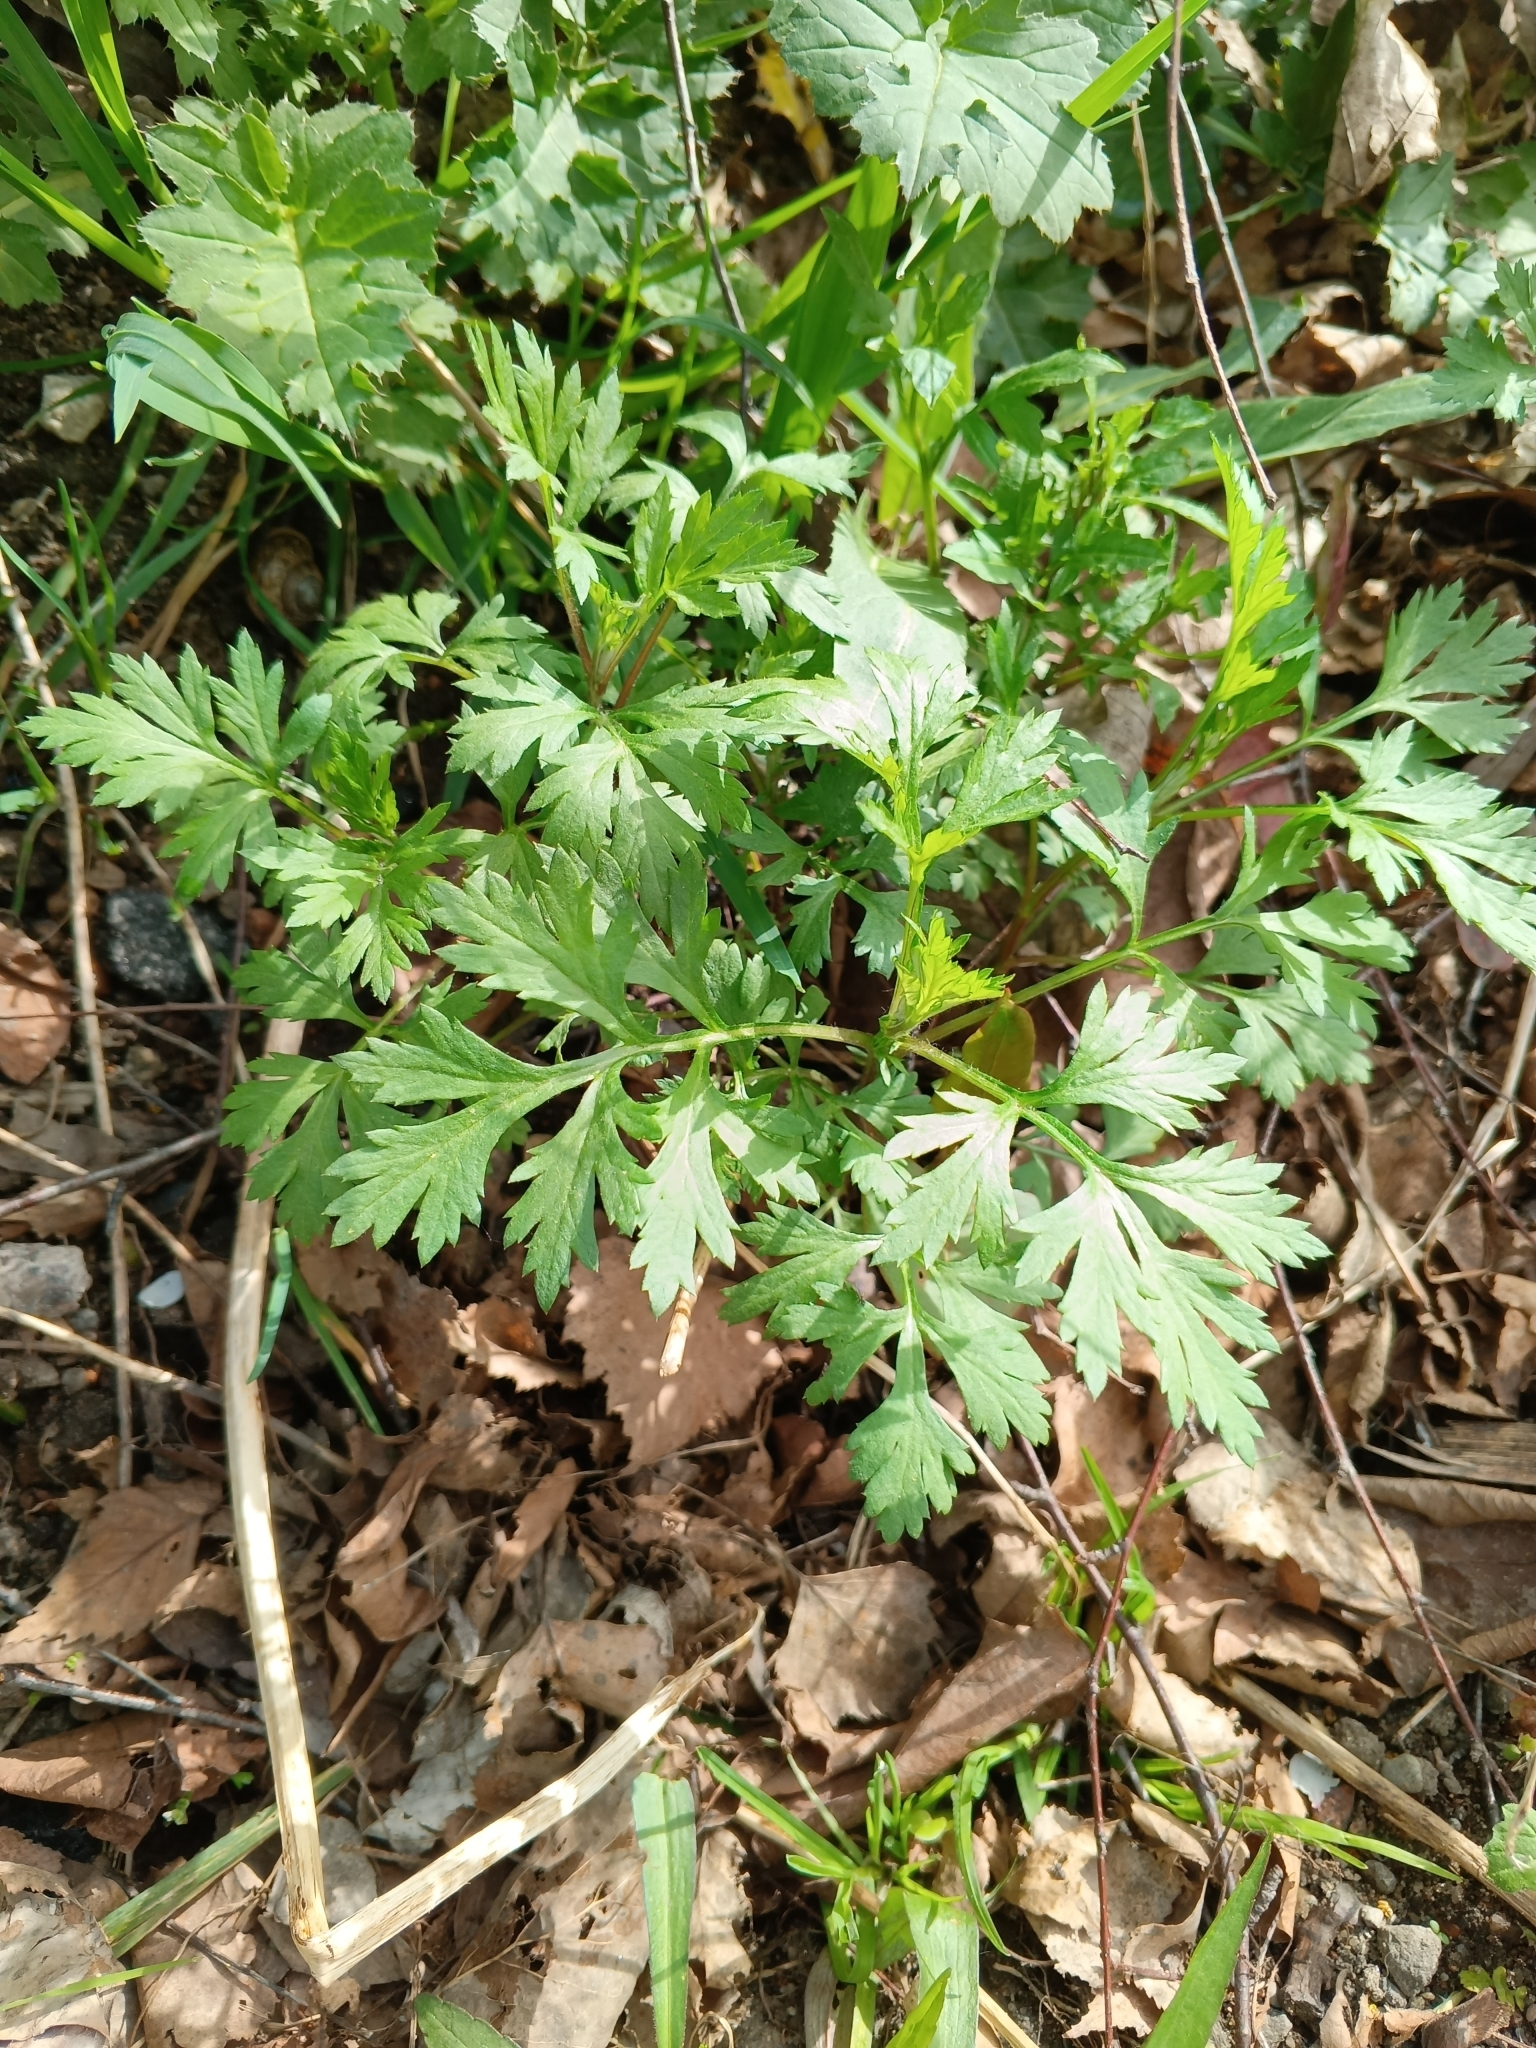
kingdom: Plantae
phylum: Tracheophyta
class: Magnoliopsida
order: Asterales
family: Asteraceae
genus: Artemisia
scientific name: Artemisia vulgaris
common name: Mugwort
